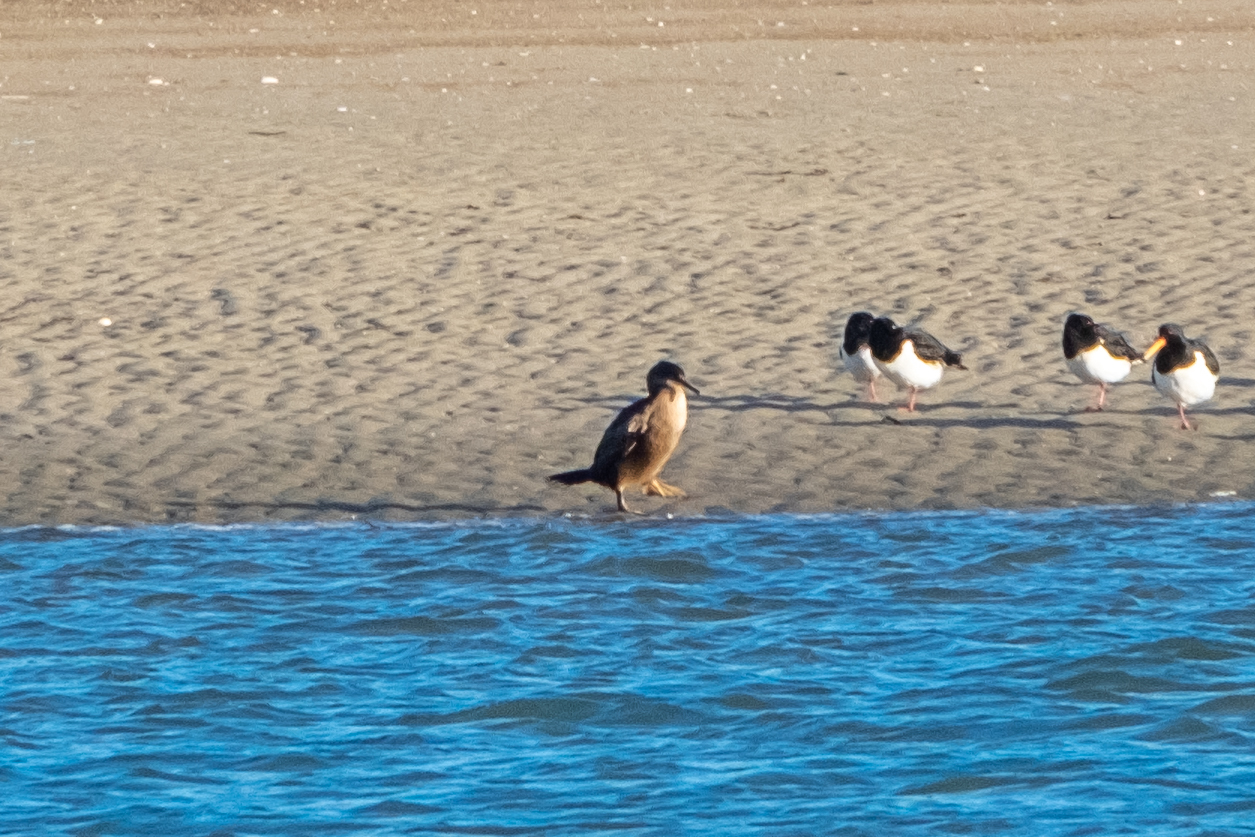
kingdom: Animalia
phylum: Chordata
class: Aves
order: Suliformes
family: Phalacrocoracidae
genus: Phalacrocorax
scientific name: Phalacrocorax aristotelis
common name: European shag
